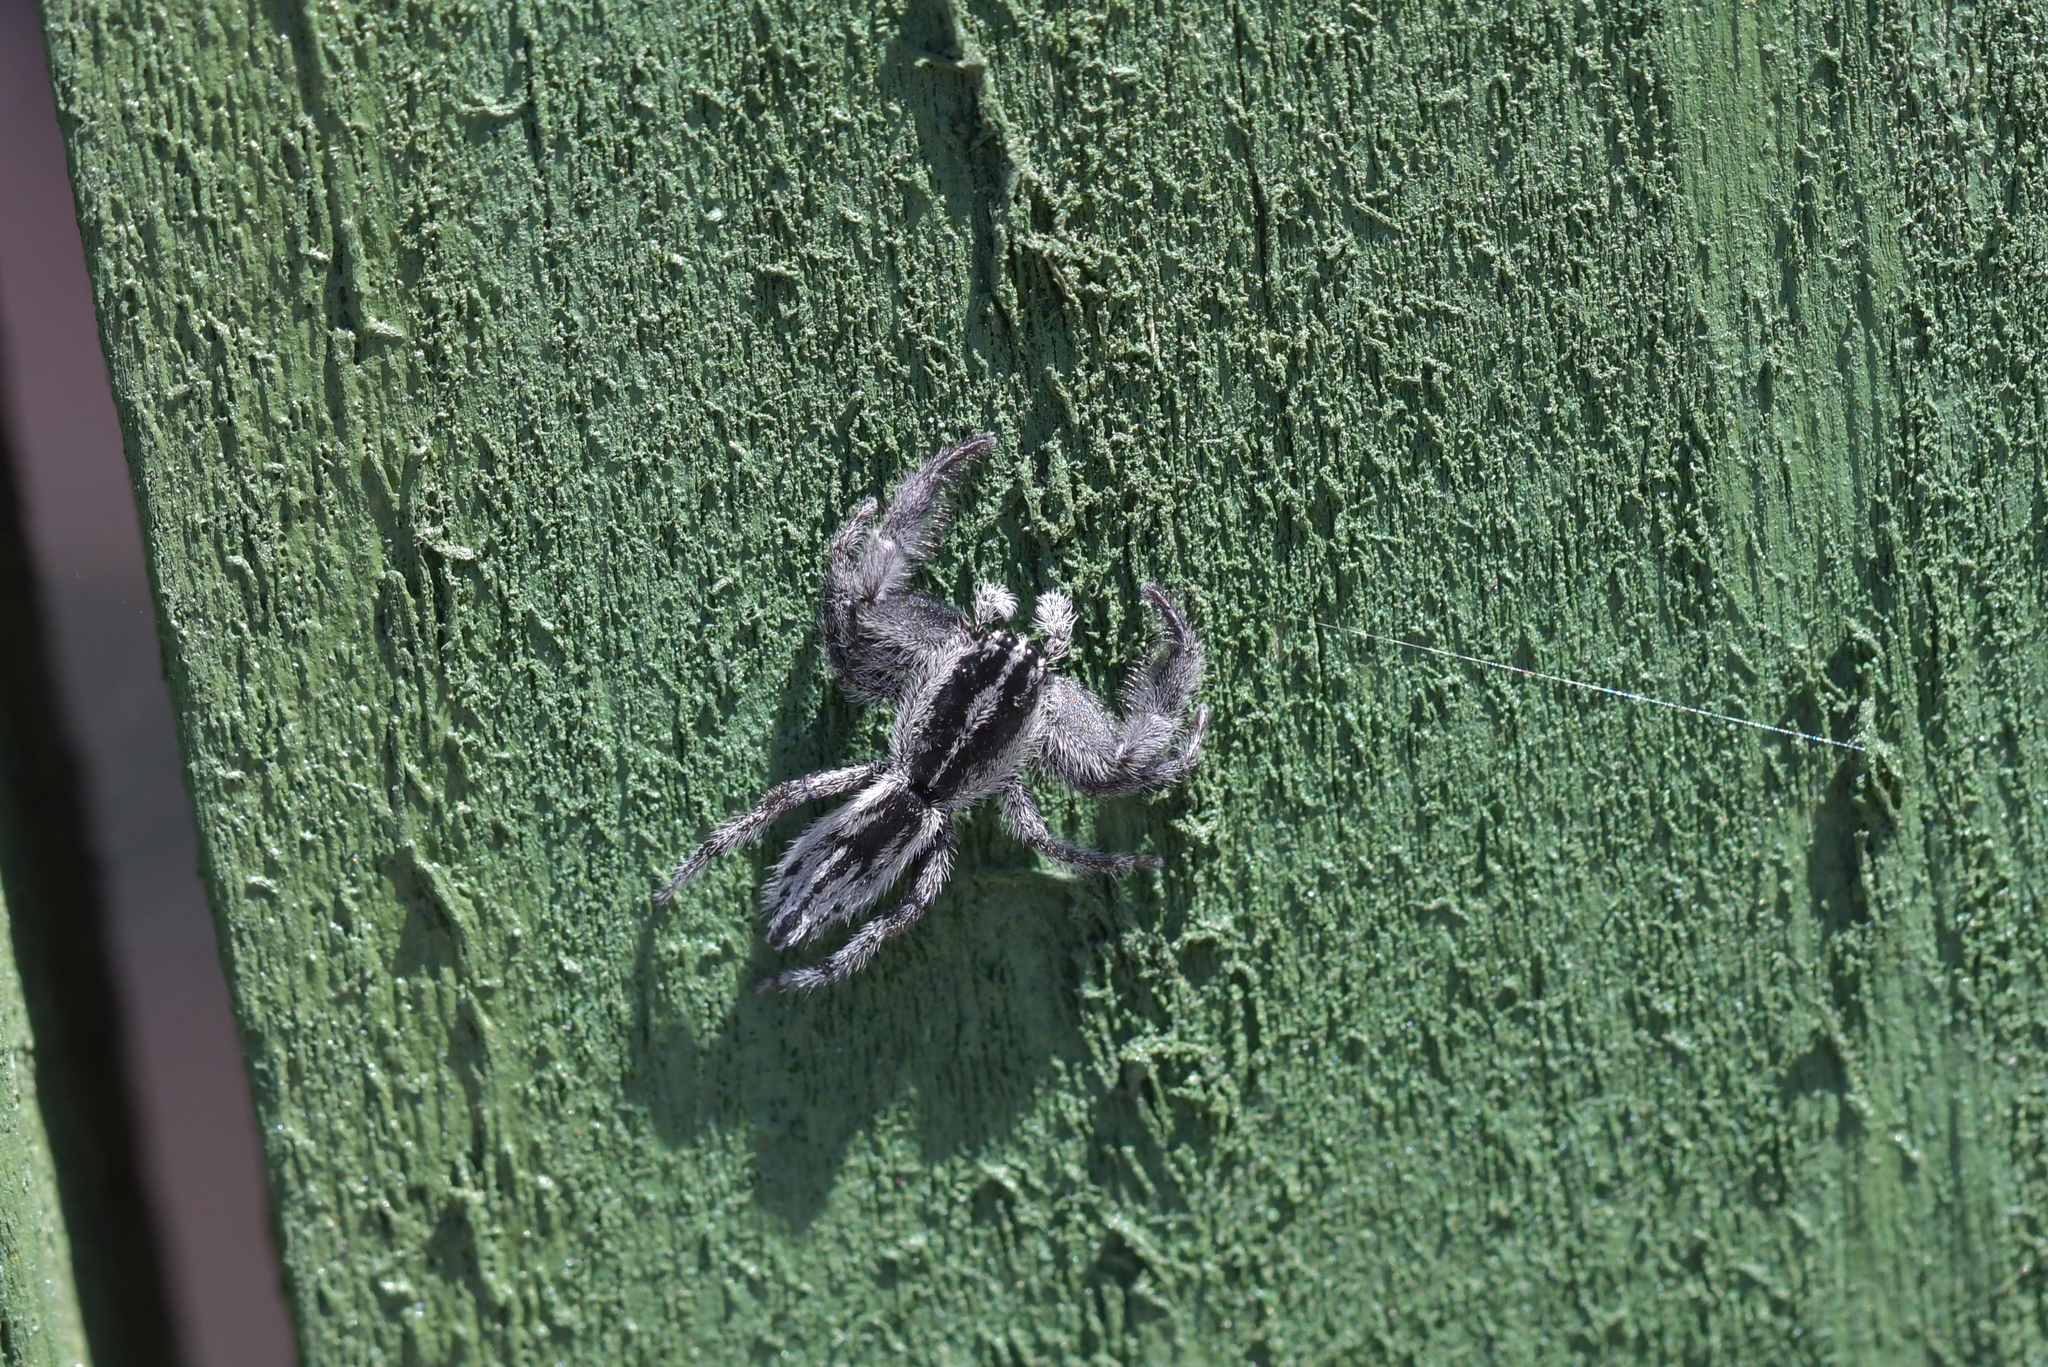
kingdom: Animalia
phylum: Arthropoda
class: Arachnida
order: Araneae
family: Salticidae
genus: Holoplatys
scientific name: Holoplatys apressus
